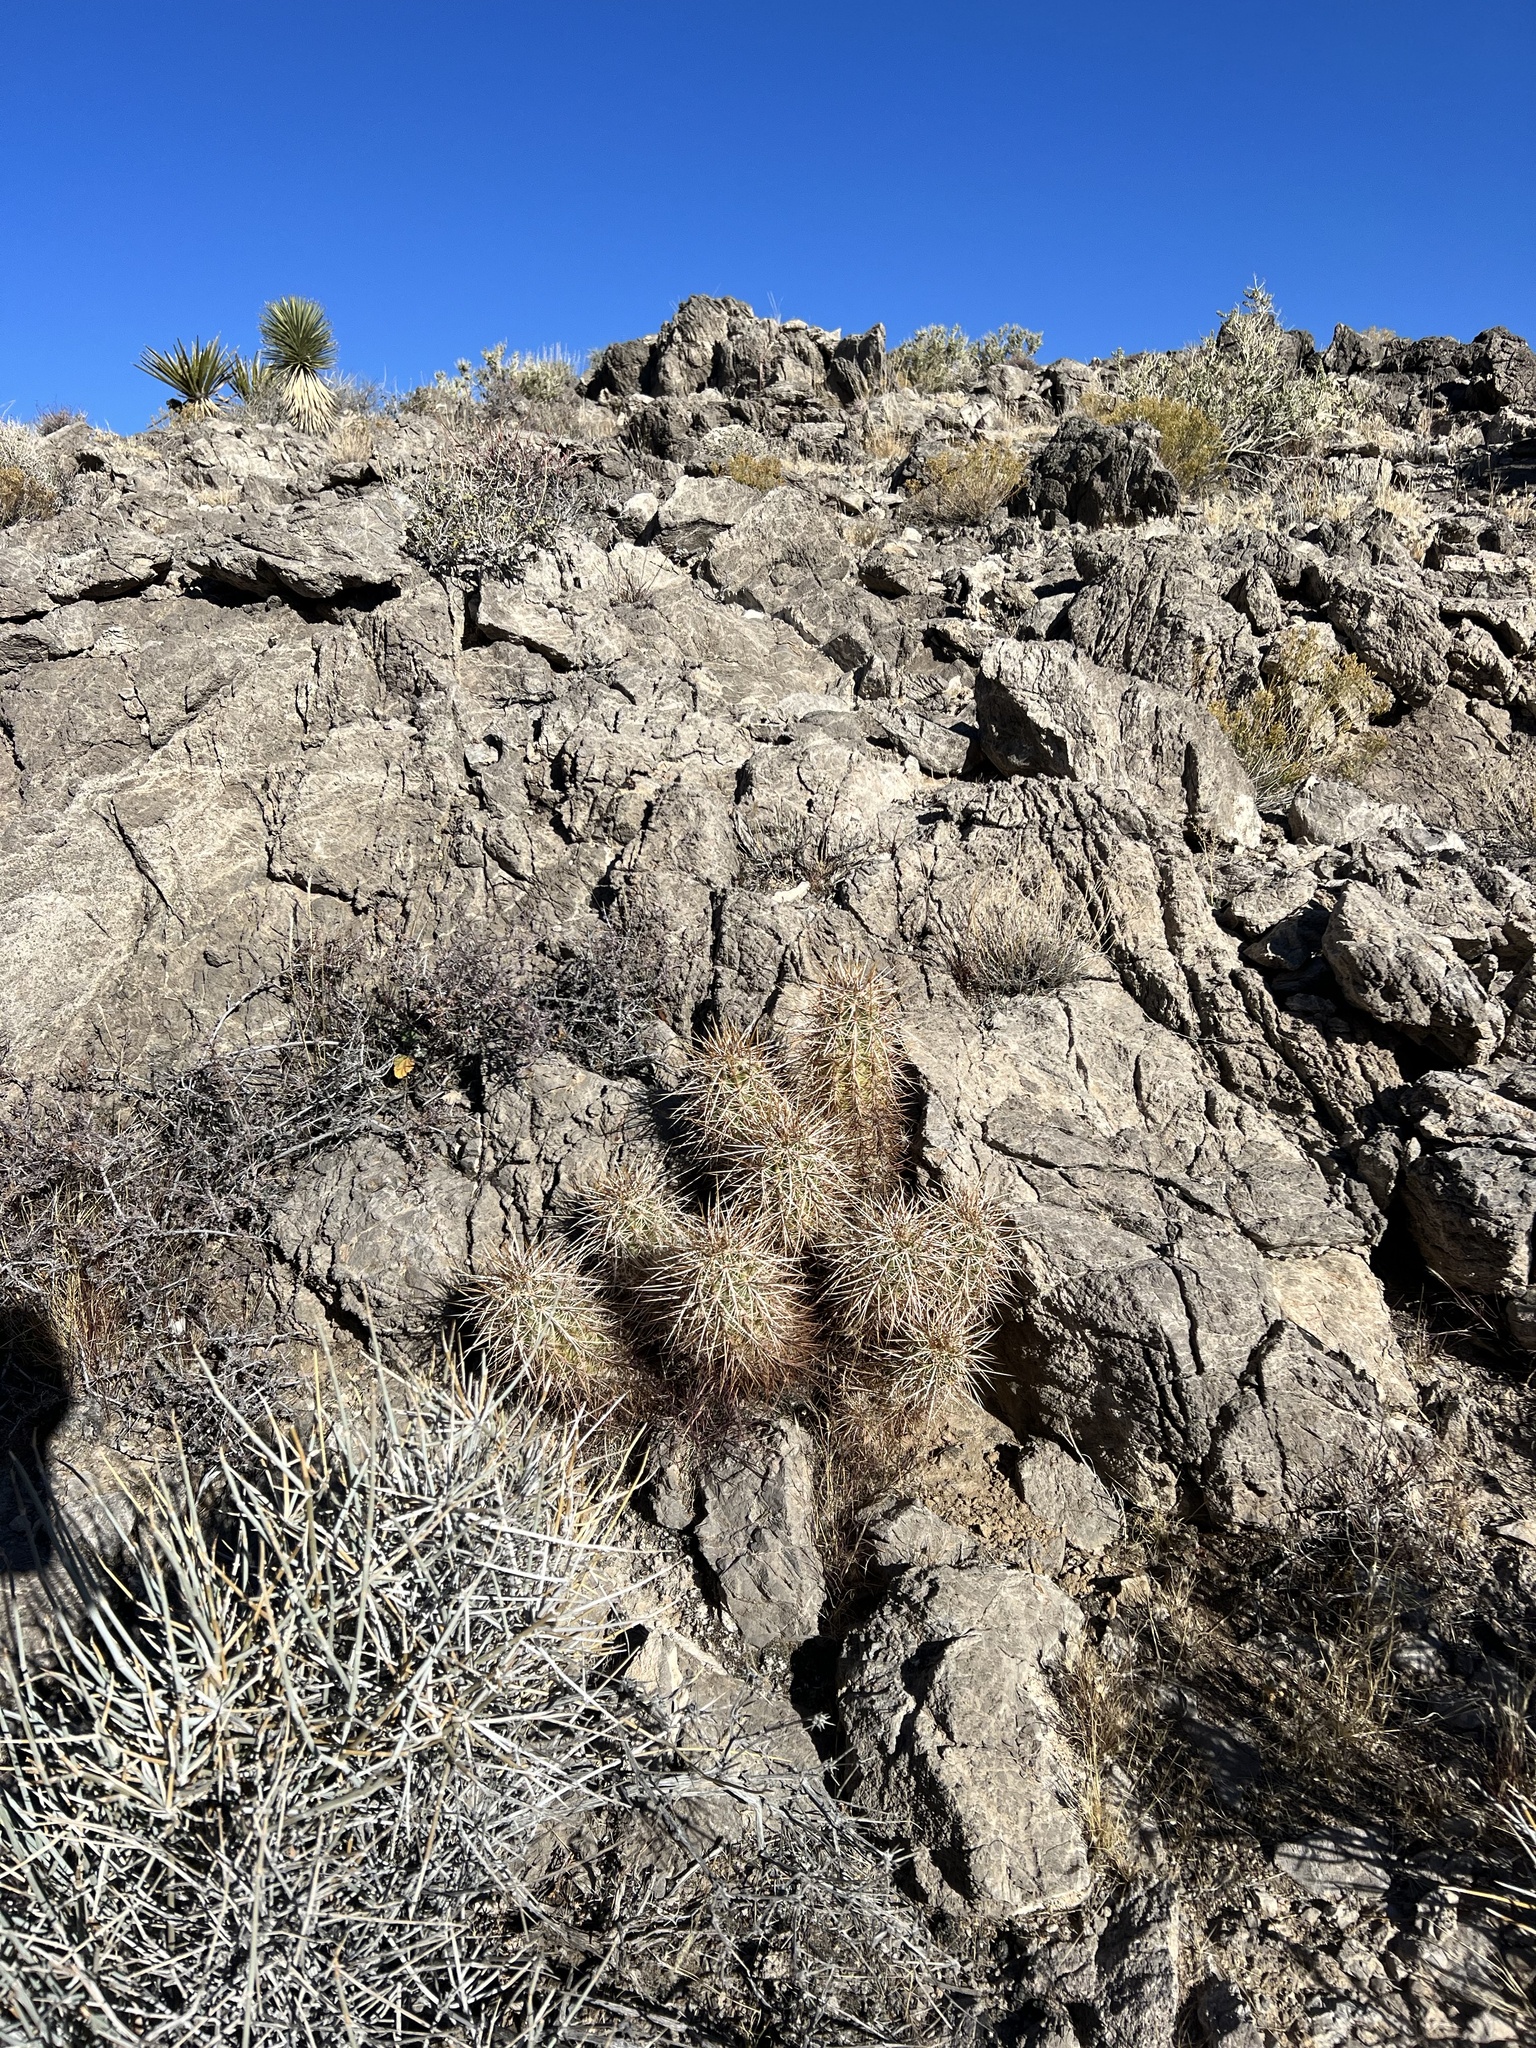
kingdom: Plantae
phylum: Tracheophyta
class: Magnoliopsida
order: Caryophyllales
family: Cactaceae
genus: Echinocereus
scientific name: Echinocereus engelmannii
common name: Engelmann's hedgehog cactus
